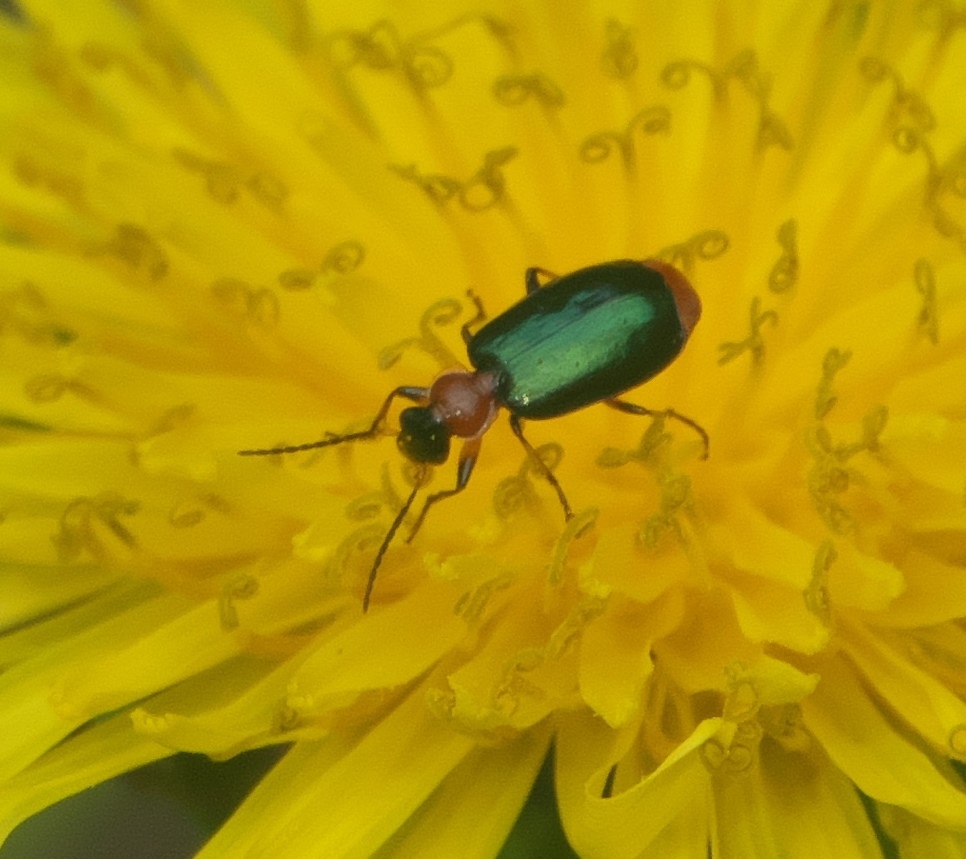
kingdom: Animalia
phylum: Arthropoda
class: Insecta
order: Coleoptera
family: Carabidae
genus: Lebia
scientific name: Lebia viridipennis
